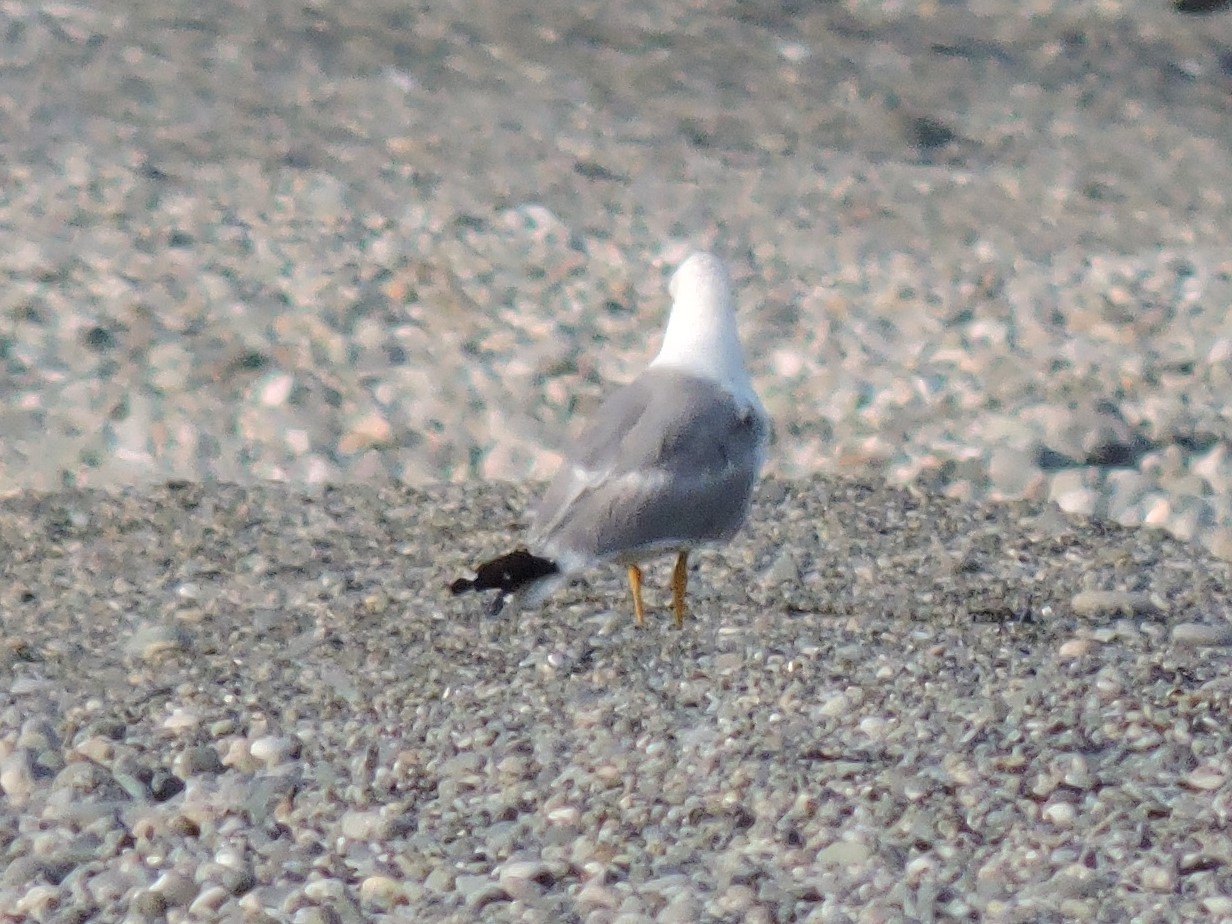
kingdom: Animalia
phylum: Chordata
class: Aves
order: Charadriiformes
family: Laridae
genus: Larus
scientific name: Larus michahellis
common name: Yellow-legged gull
